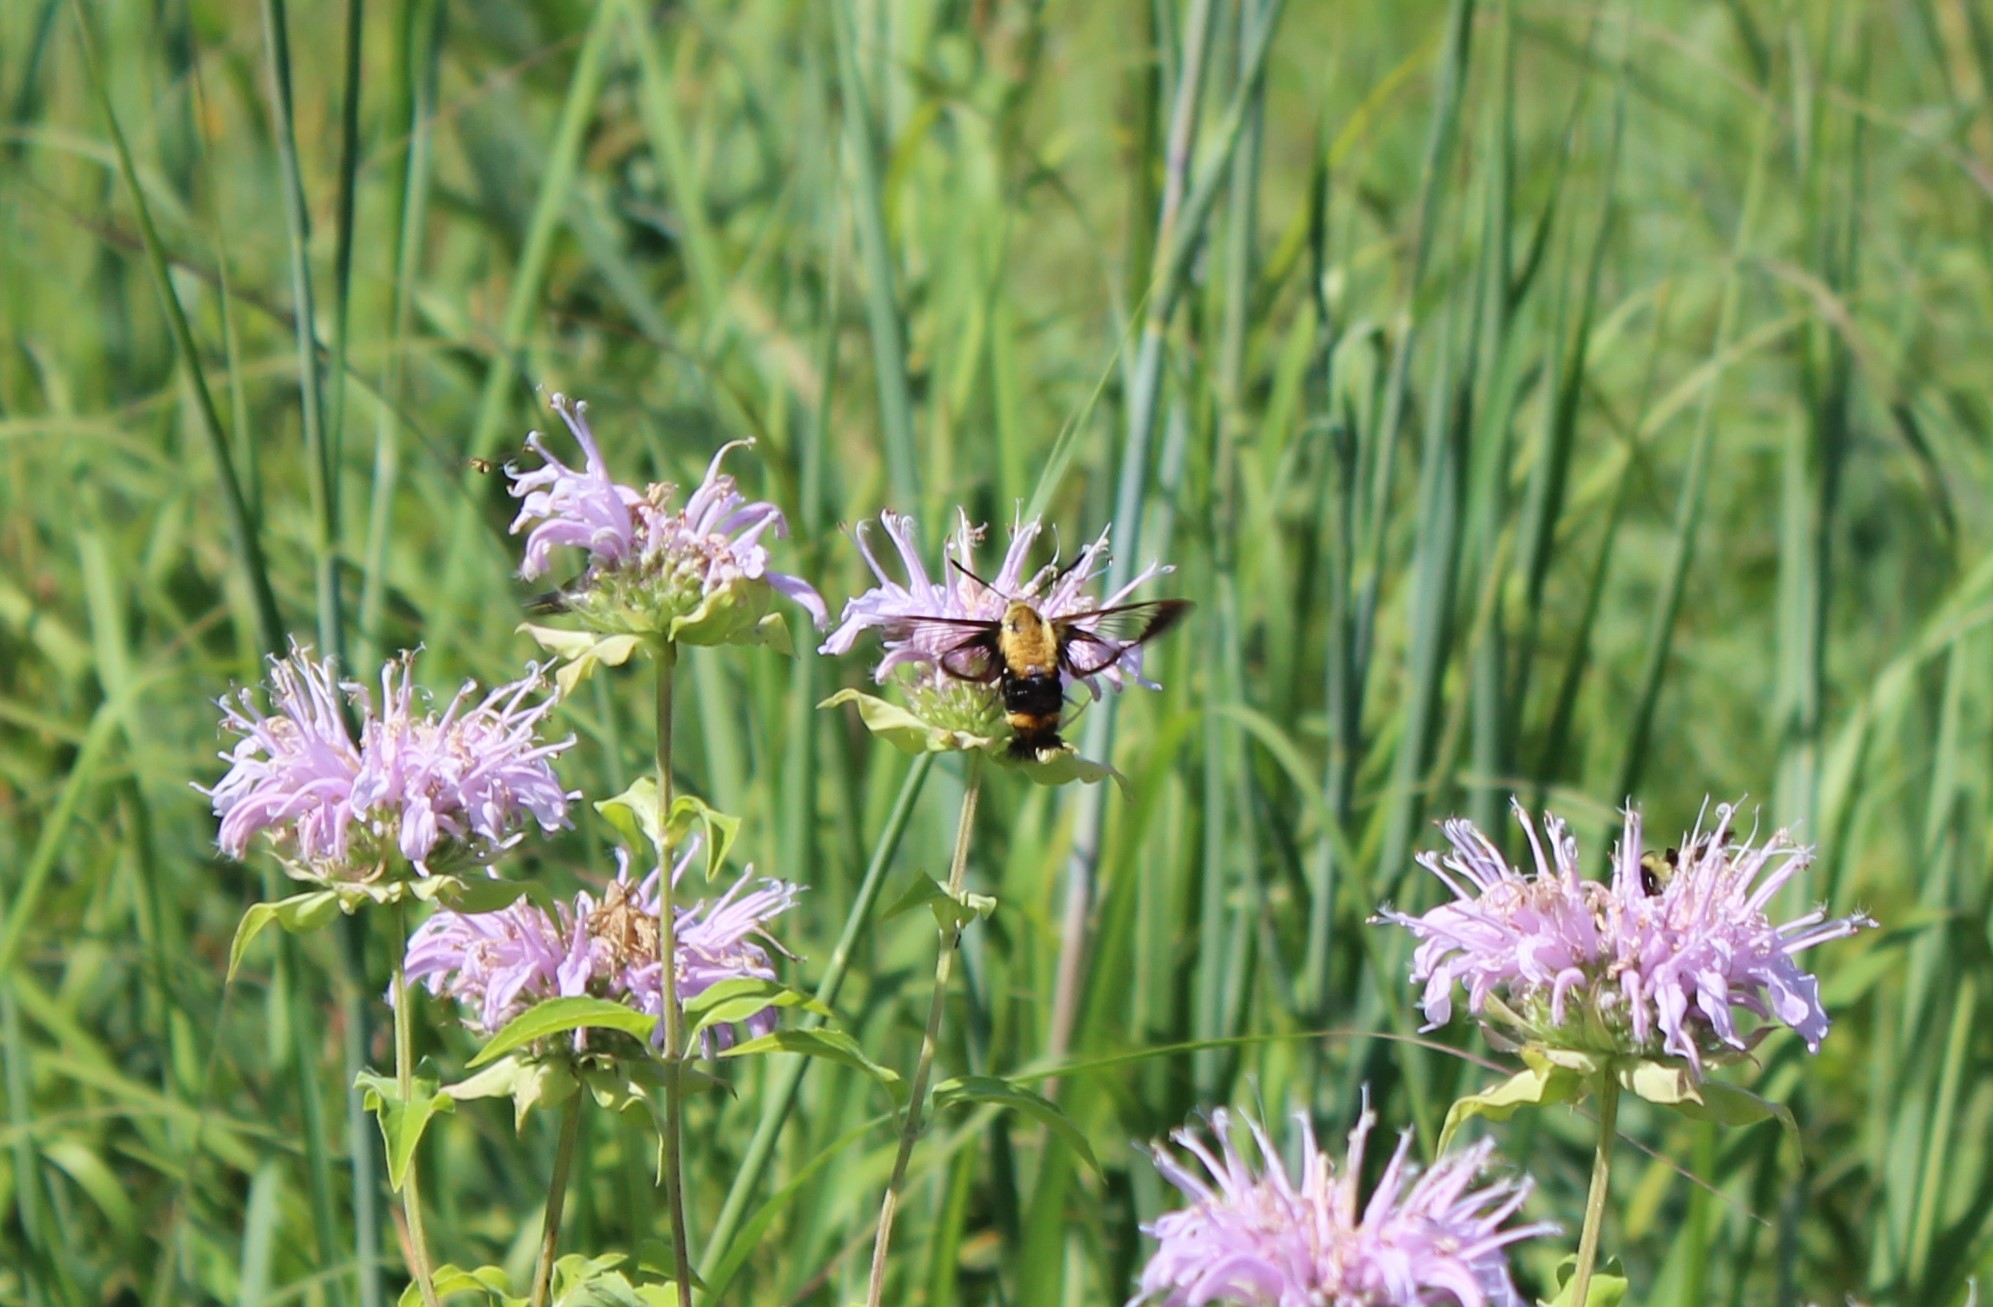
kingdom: Animalia
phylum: Arthropoda
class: Insecta
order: Lepidoptera
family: Sphingidae
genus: Hemaris
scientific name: Hemaris diffinis
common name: Bumblebee moth
